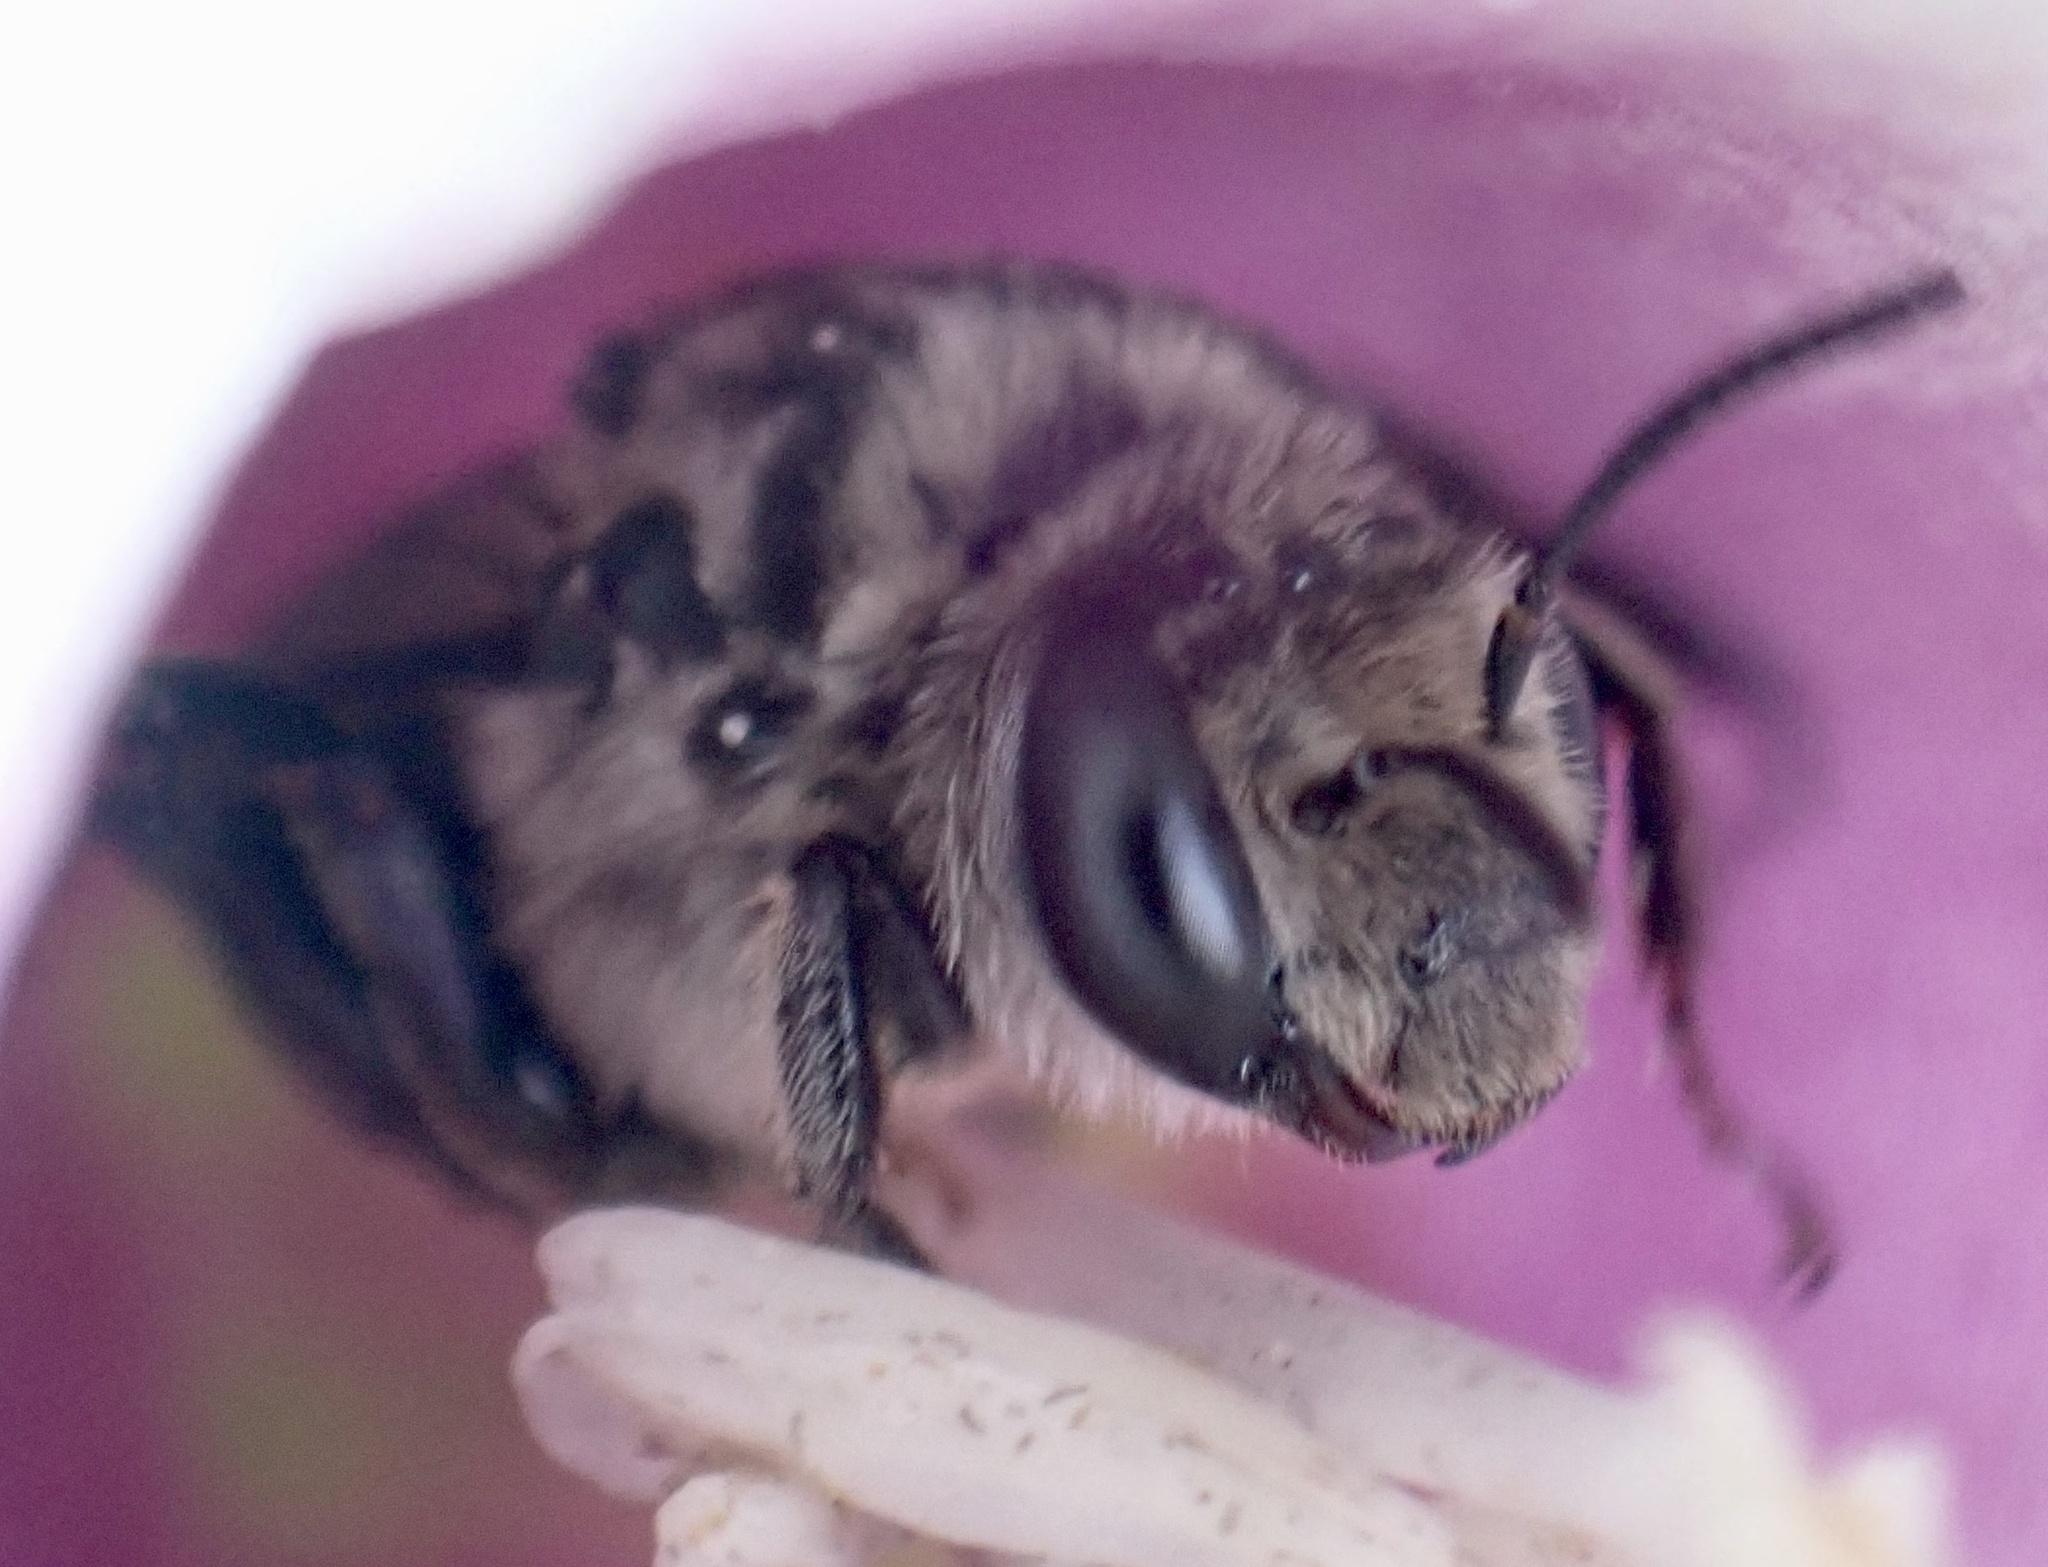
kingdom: Animalia
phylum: Arthropoda
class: Insecta
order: Hymenoptera
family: Apidae
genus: Melitoma
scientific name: Melitoma taurea
